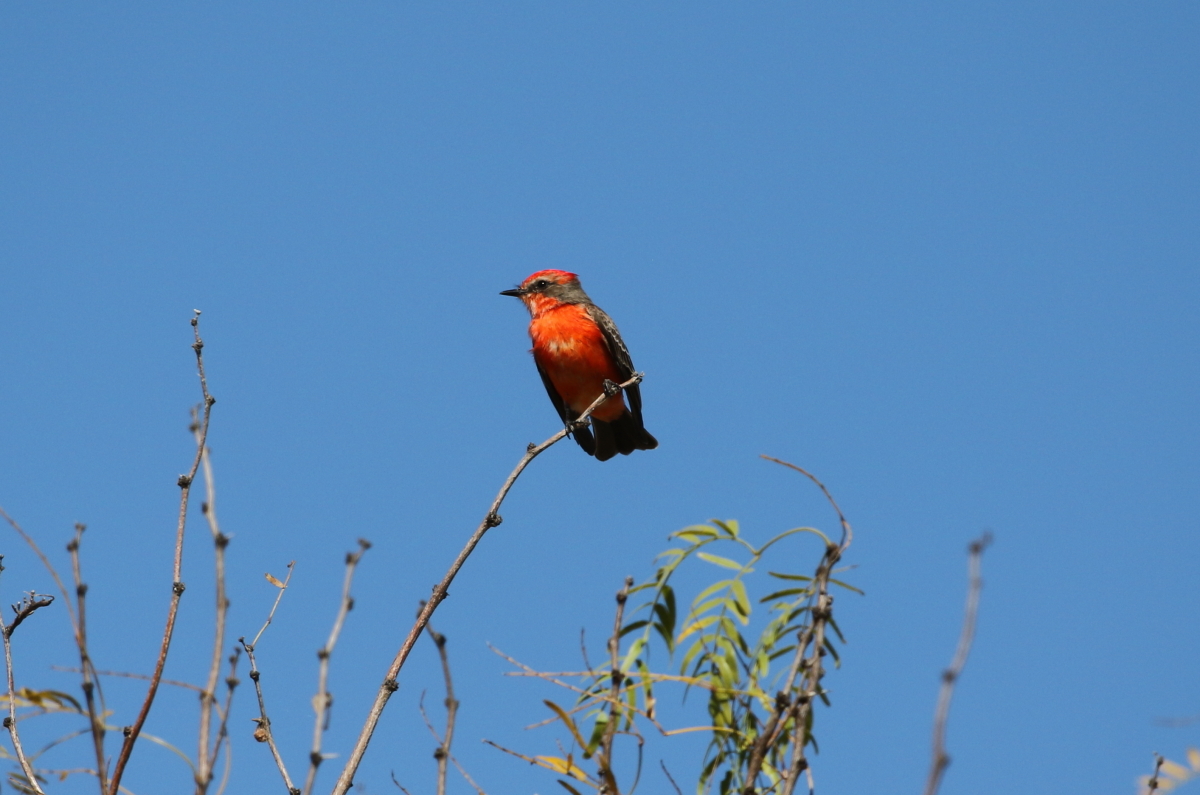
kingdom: Animalia
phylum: Chordata
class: Aves
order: Passeriformes
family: Tyrannidae
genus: Pyrocephalus
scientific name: Pyrocephalus rubinus
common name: Vermilion flycatcher
